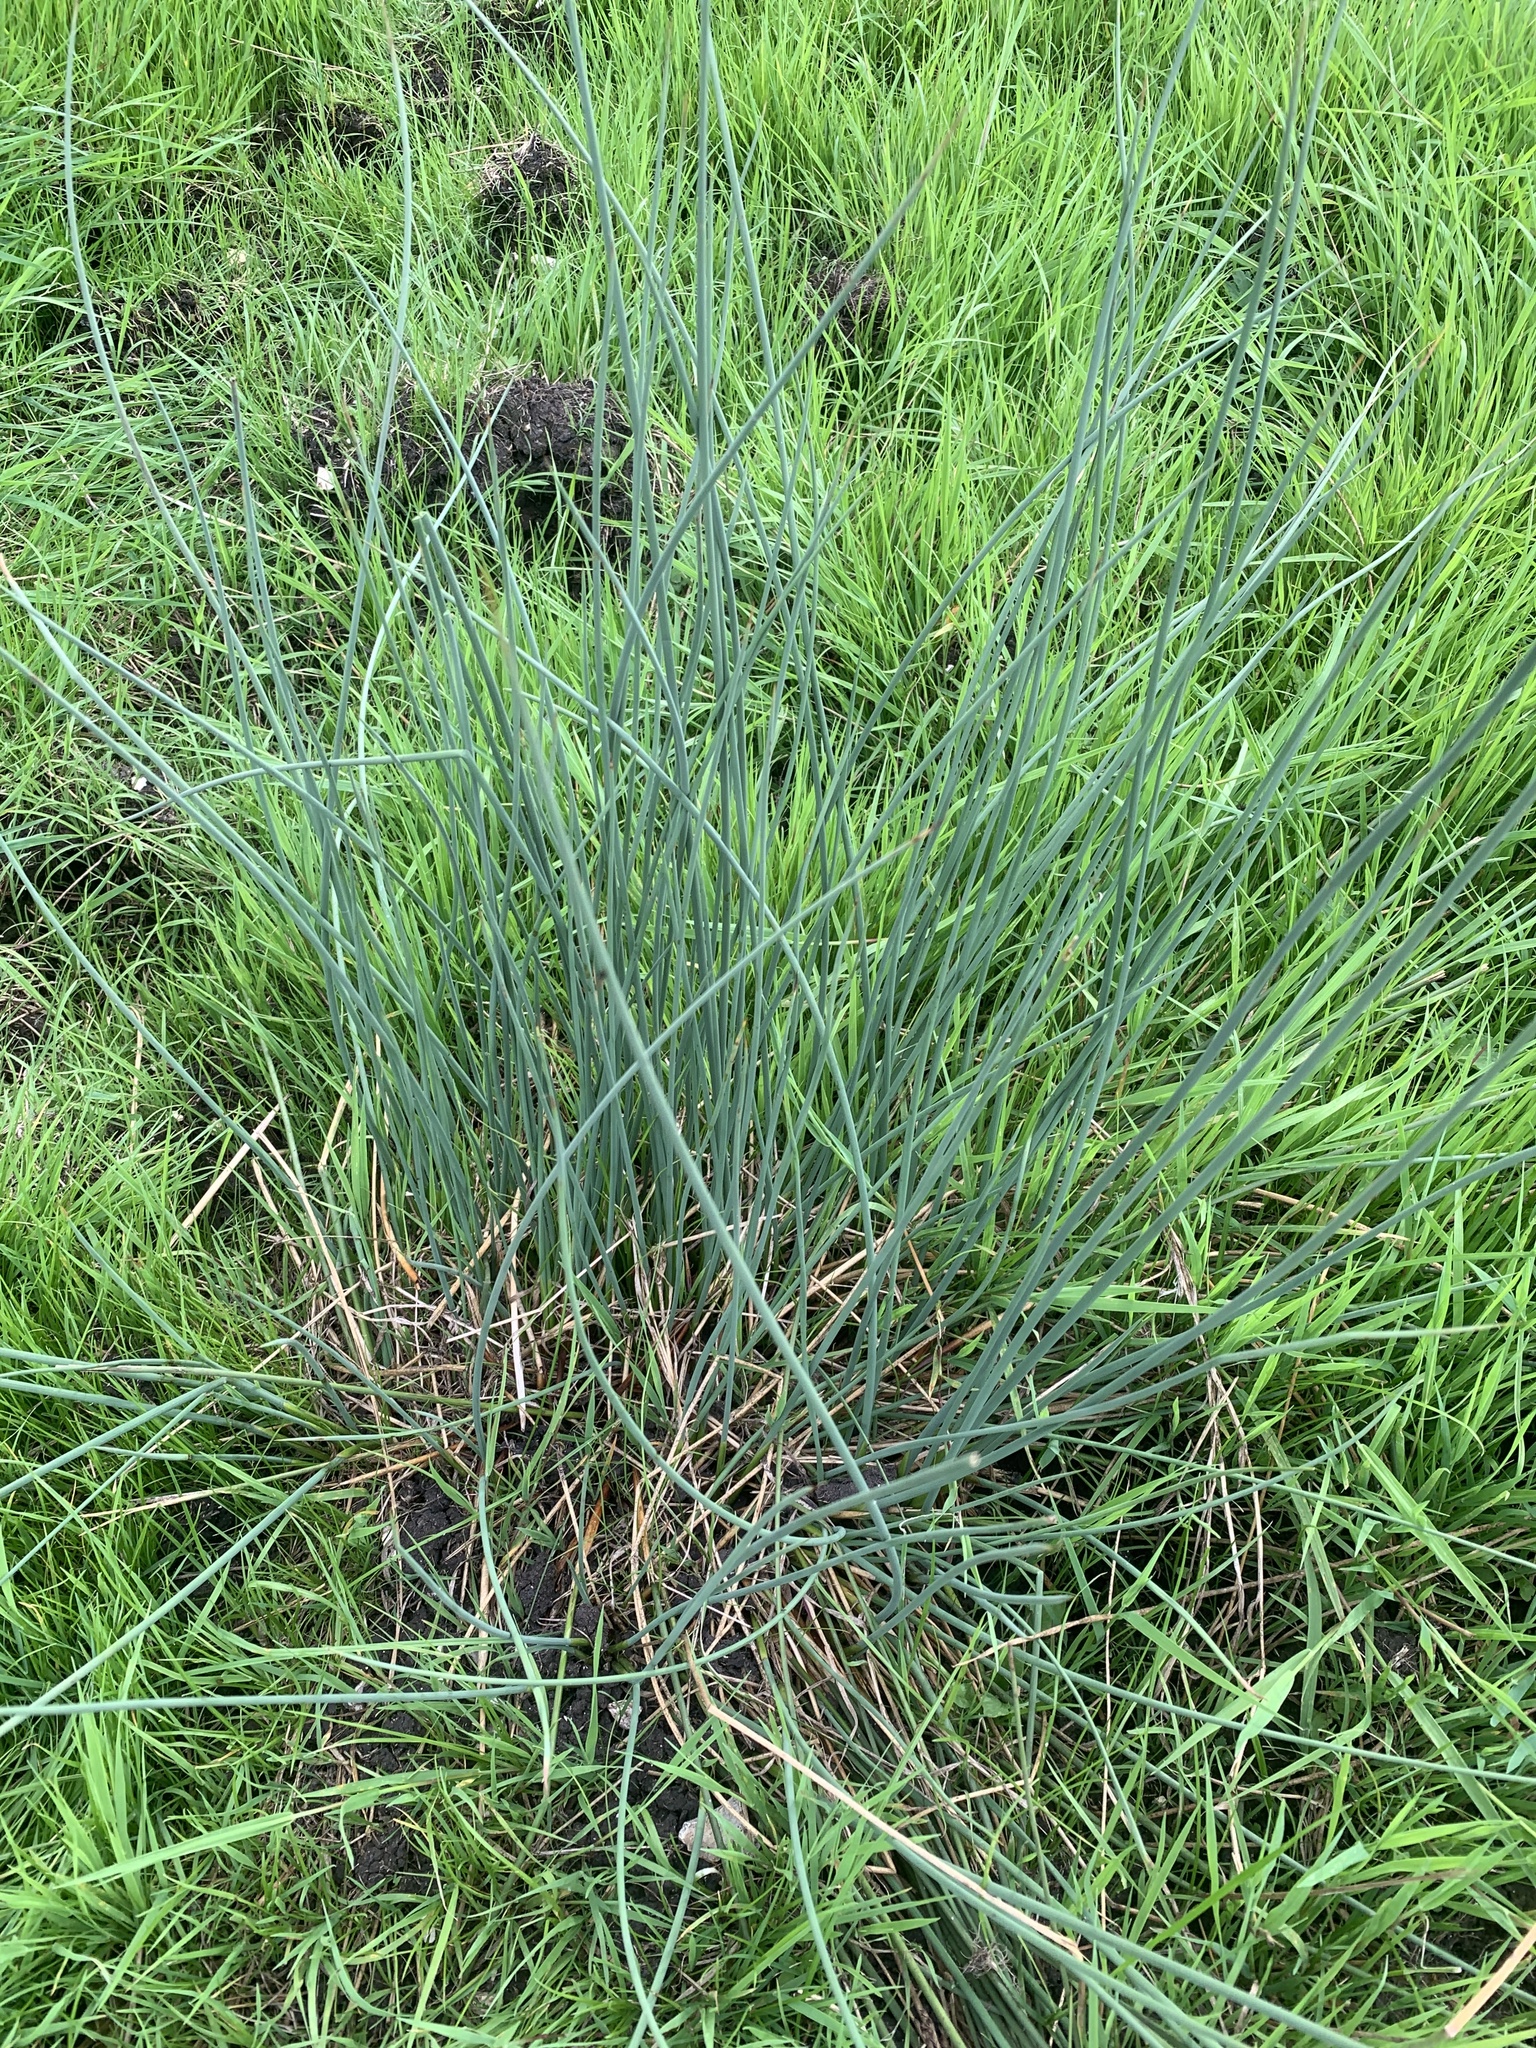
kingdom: Plantae
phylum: Tracheophyta
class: Liliopsida
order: Poales
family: Juncaceae
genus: Juncus
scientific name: Juncus inflexus
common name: Hard rush
